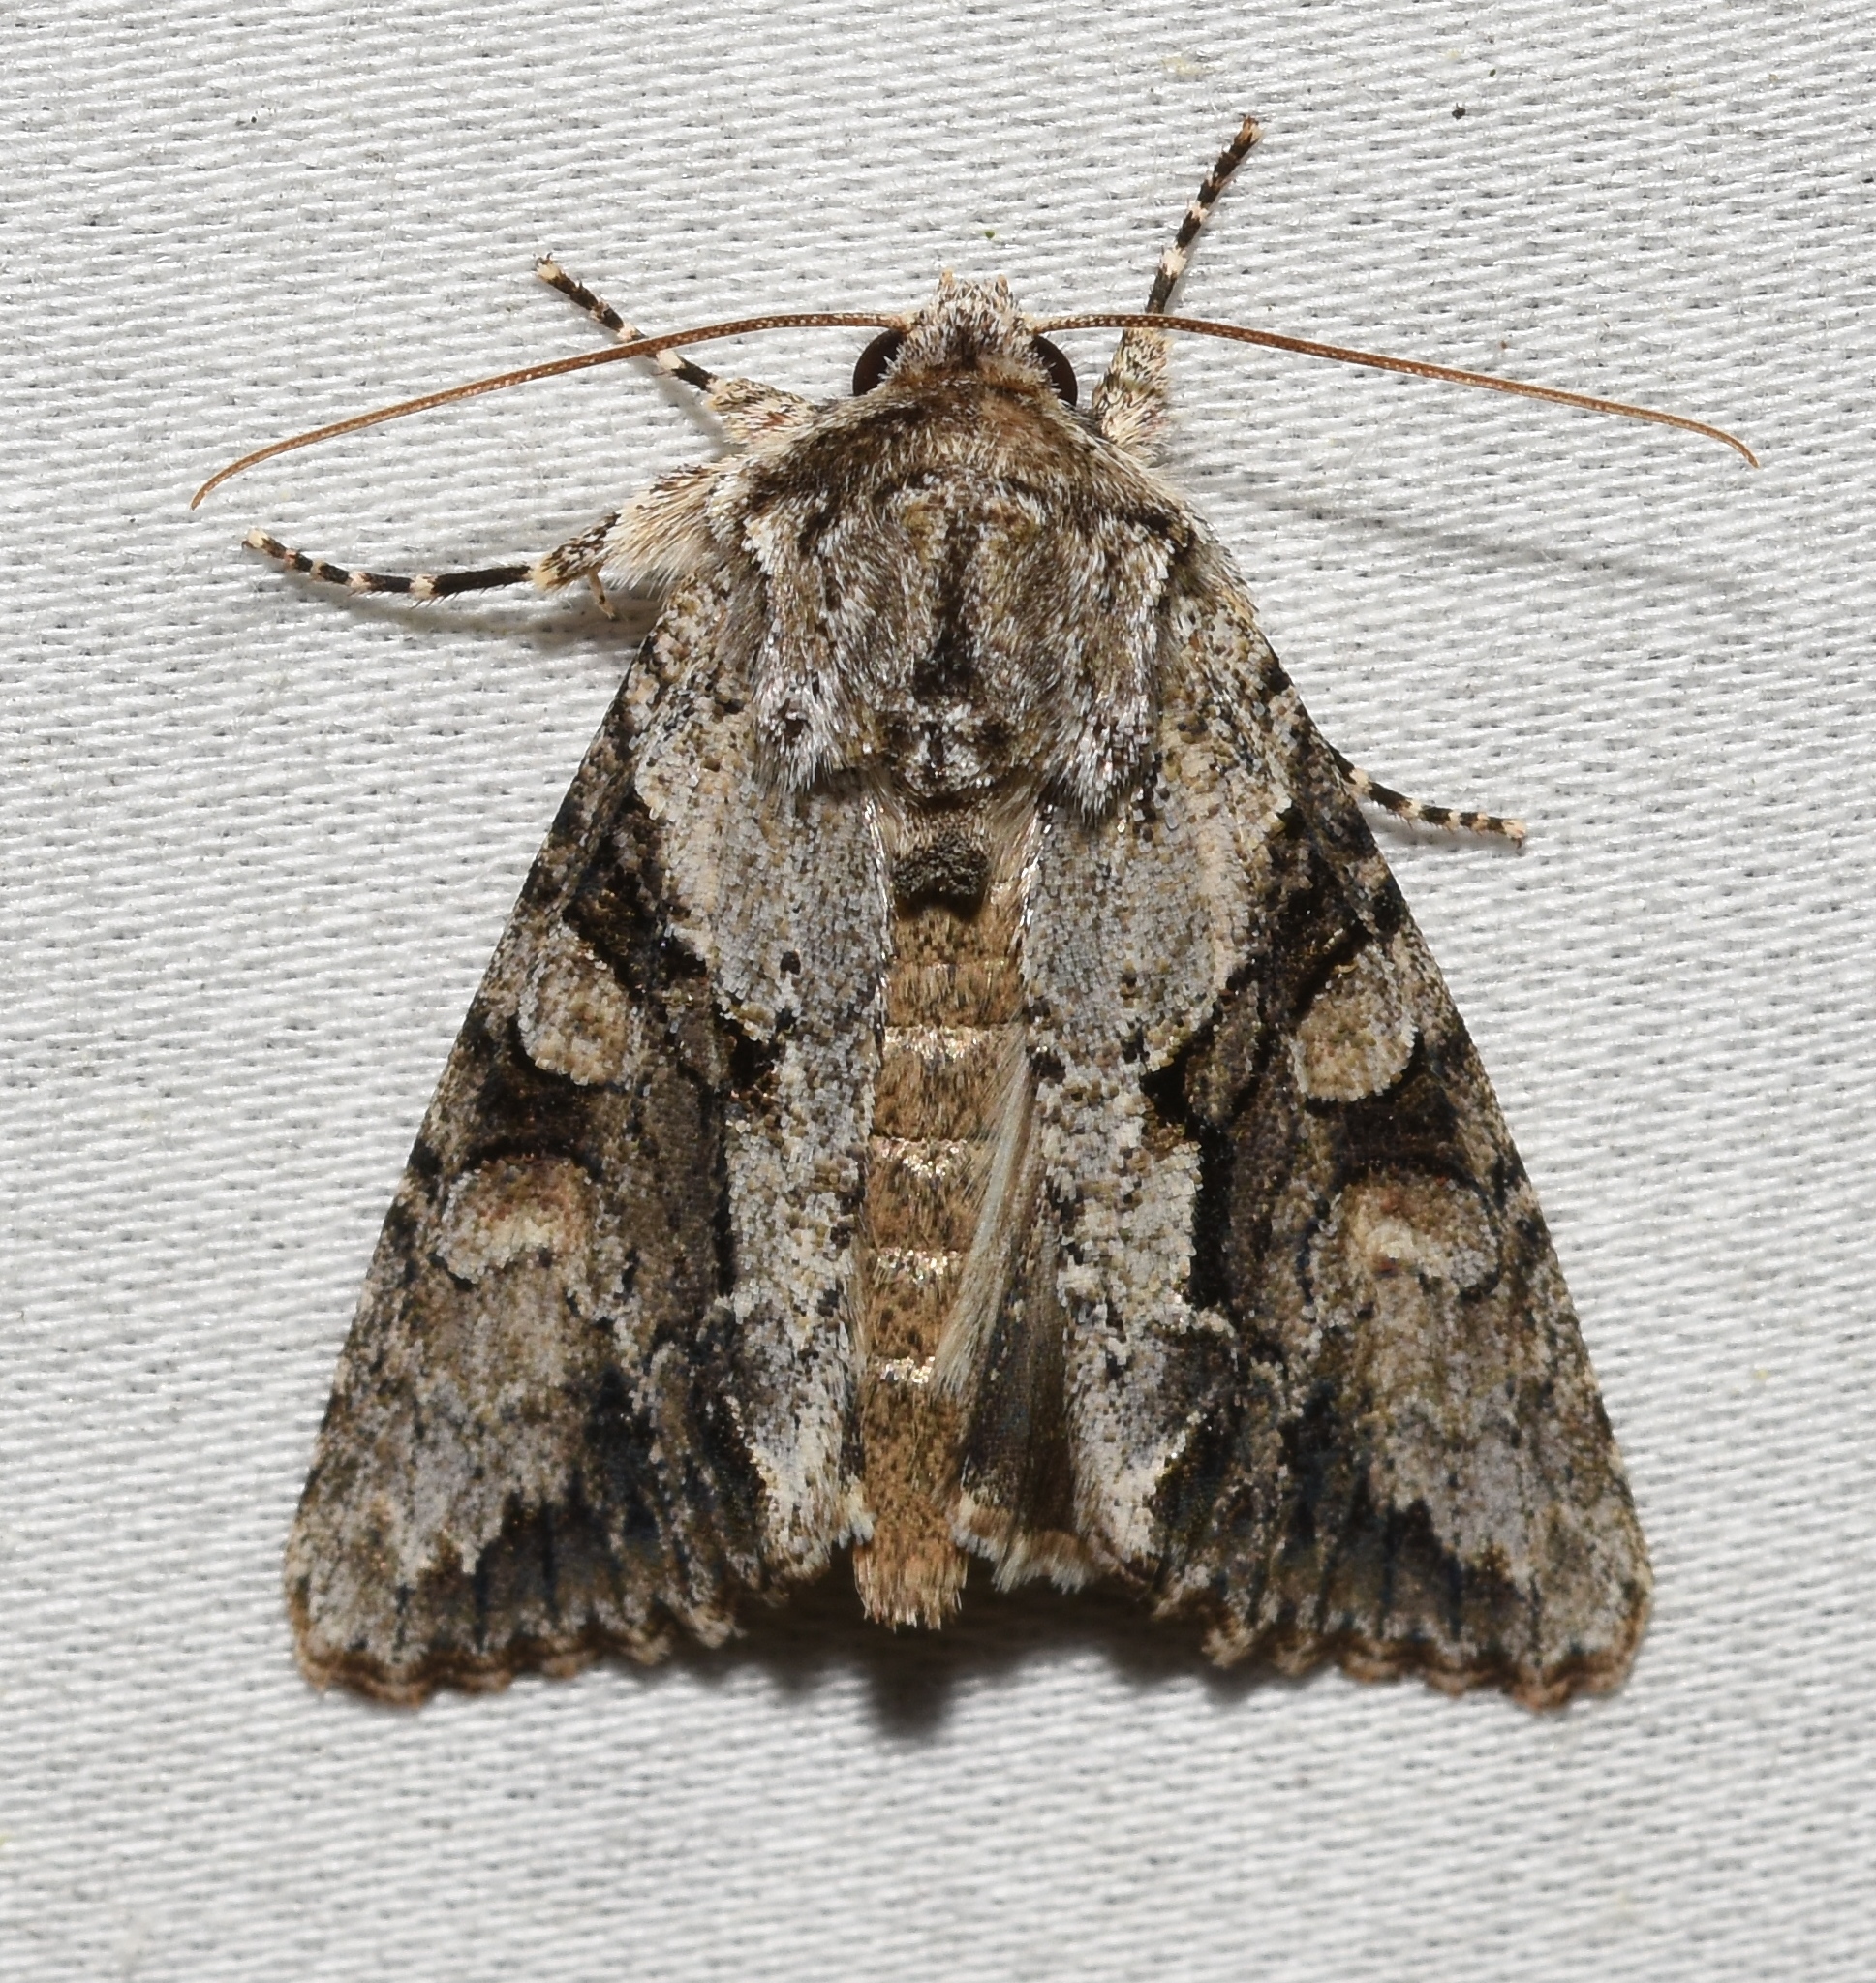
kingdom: Animalia
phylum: Arthropoda
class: Insecta
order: Lepidoptera
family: Noctuidae
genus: Achatia
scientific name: Achatia distincta
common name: Distinct quaker
